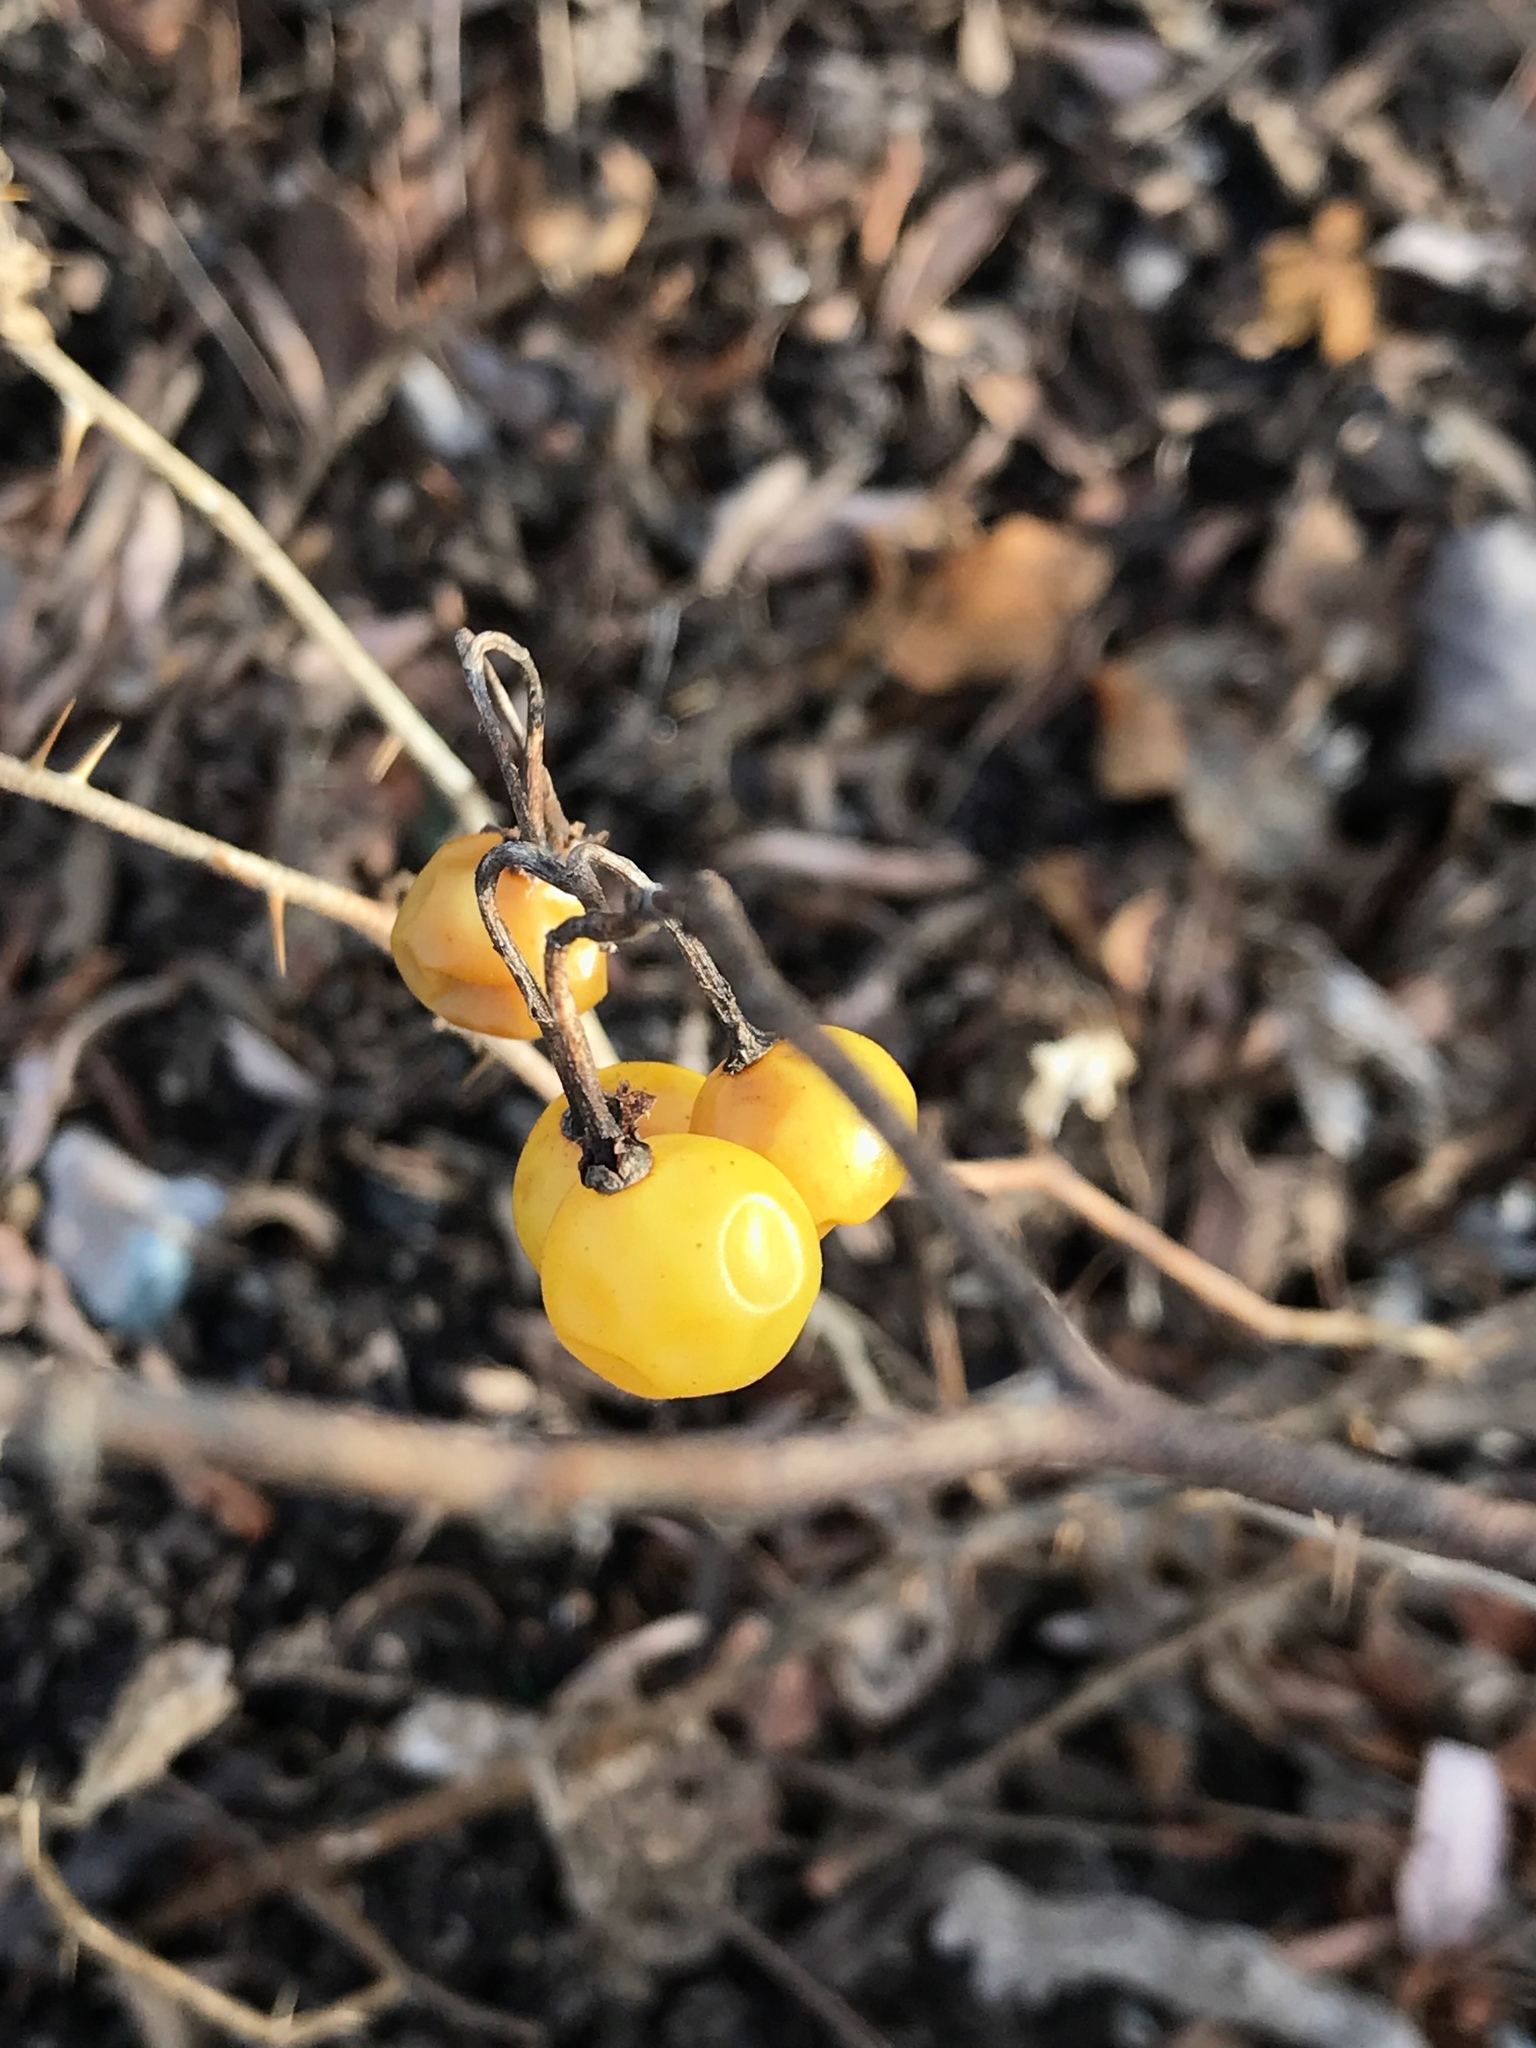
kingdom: Plantae
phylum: Tracheophyta
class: Magnoliopsida
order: Solanales
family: Solanaceae
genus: Solanum
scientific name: Solanum carolinense
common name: Horse-nettle
